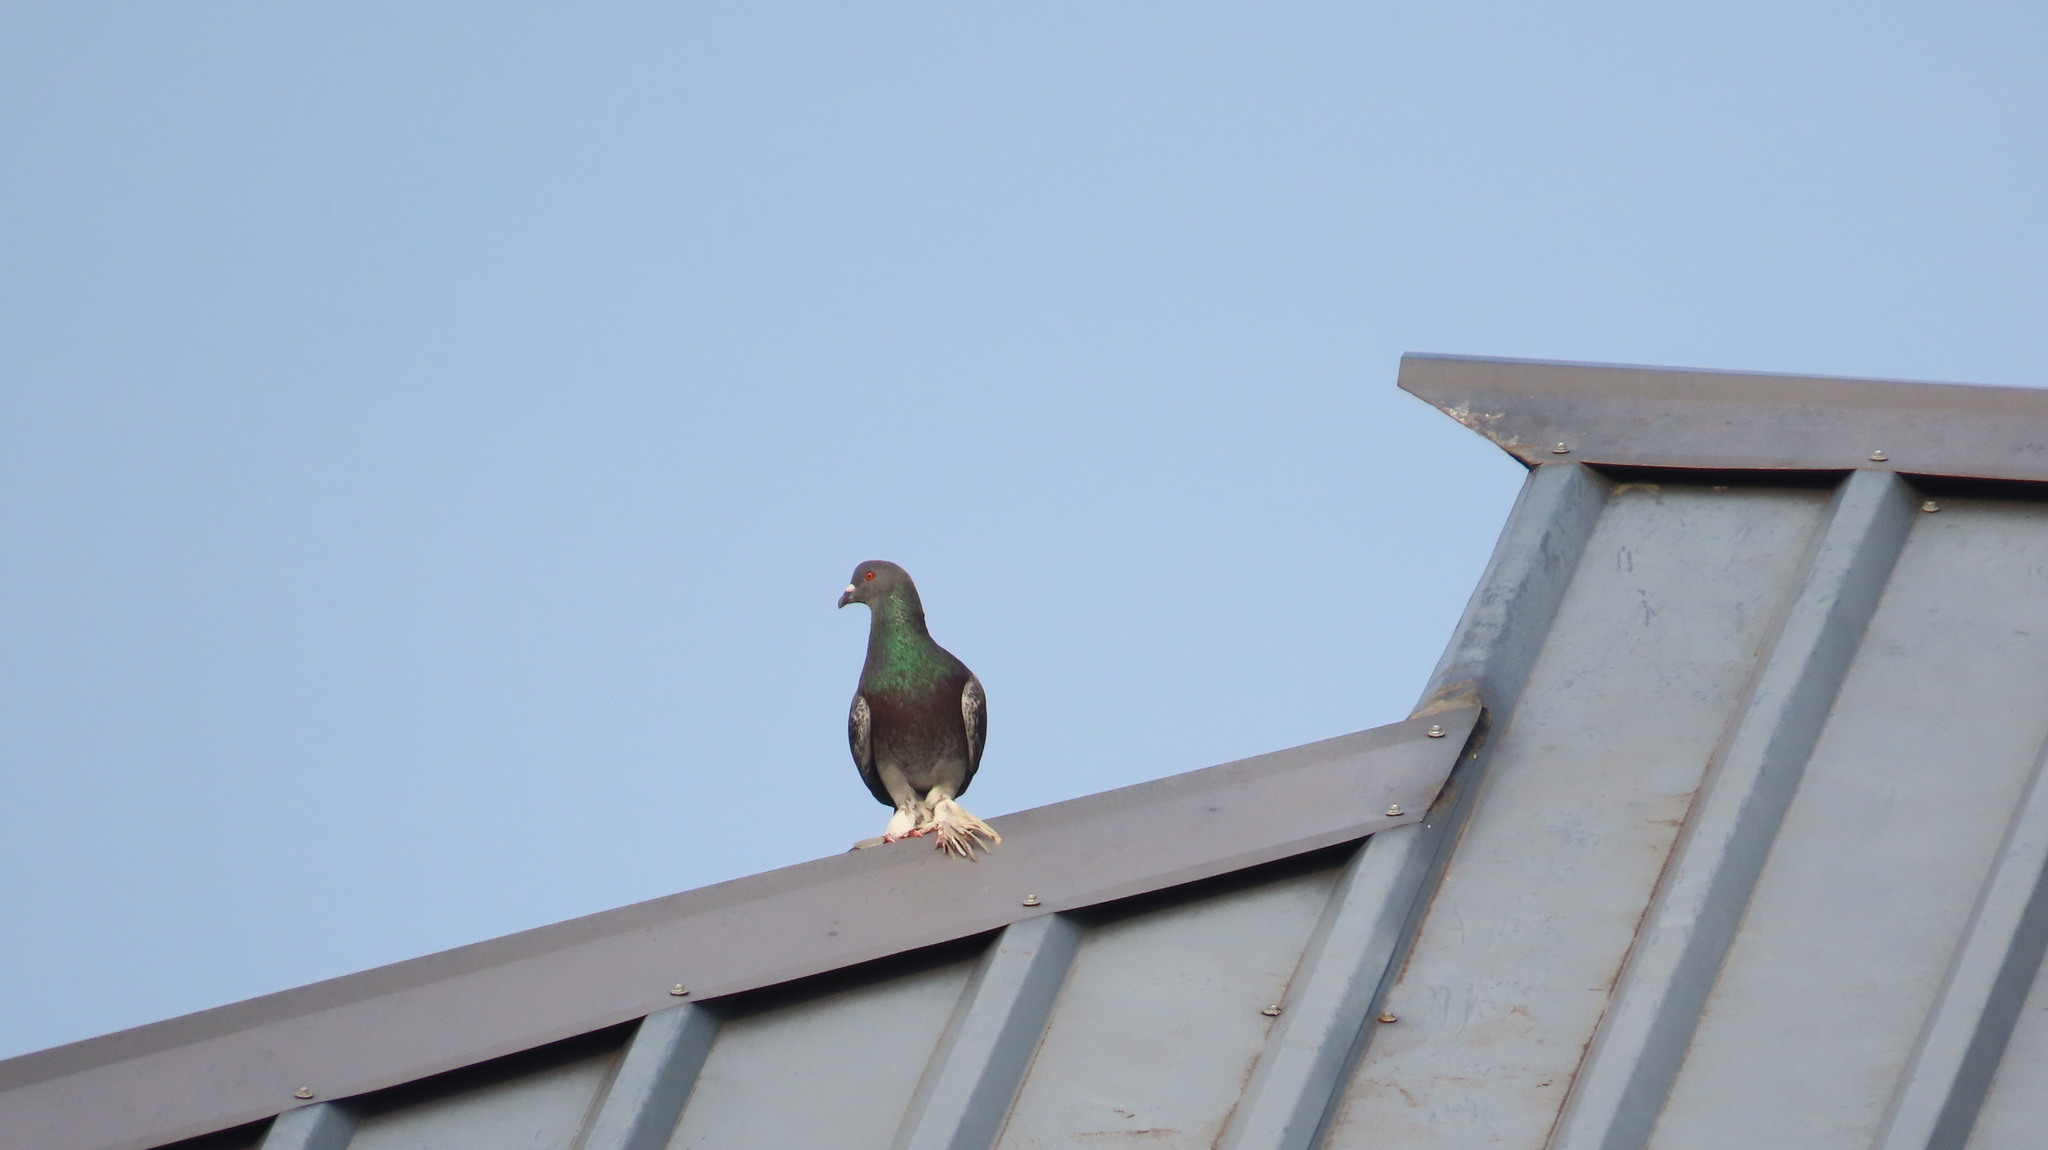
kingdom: Animalia
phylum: Chordata
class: Aves
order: Columbiformes
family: Columbidae
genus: Columba
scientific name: Columba livia
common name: Rock pigeon
